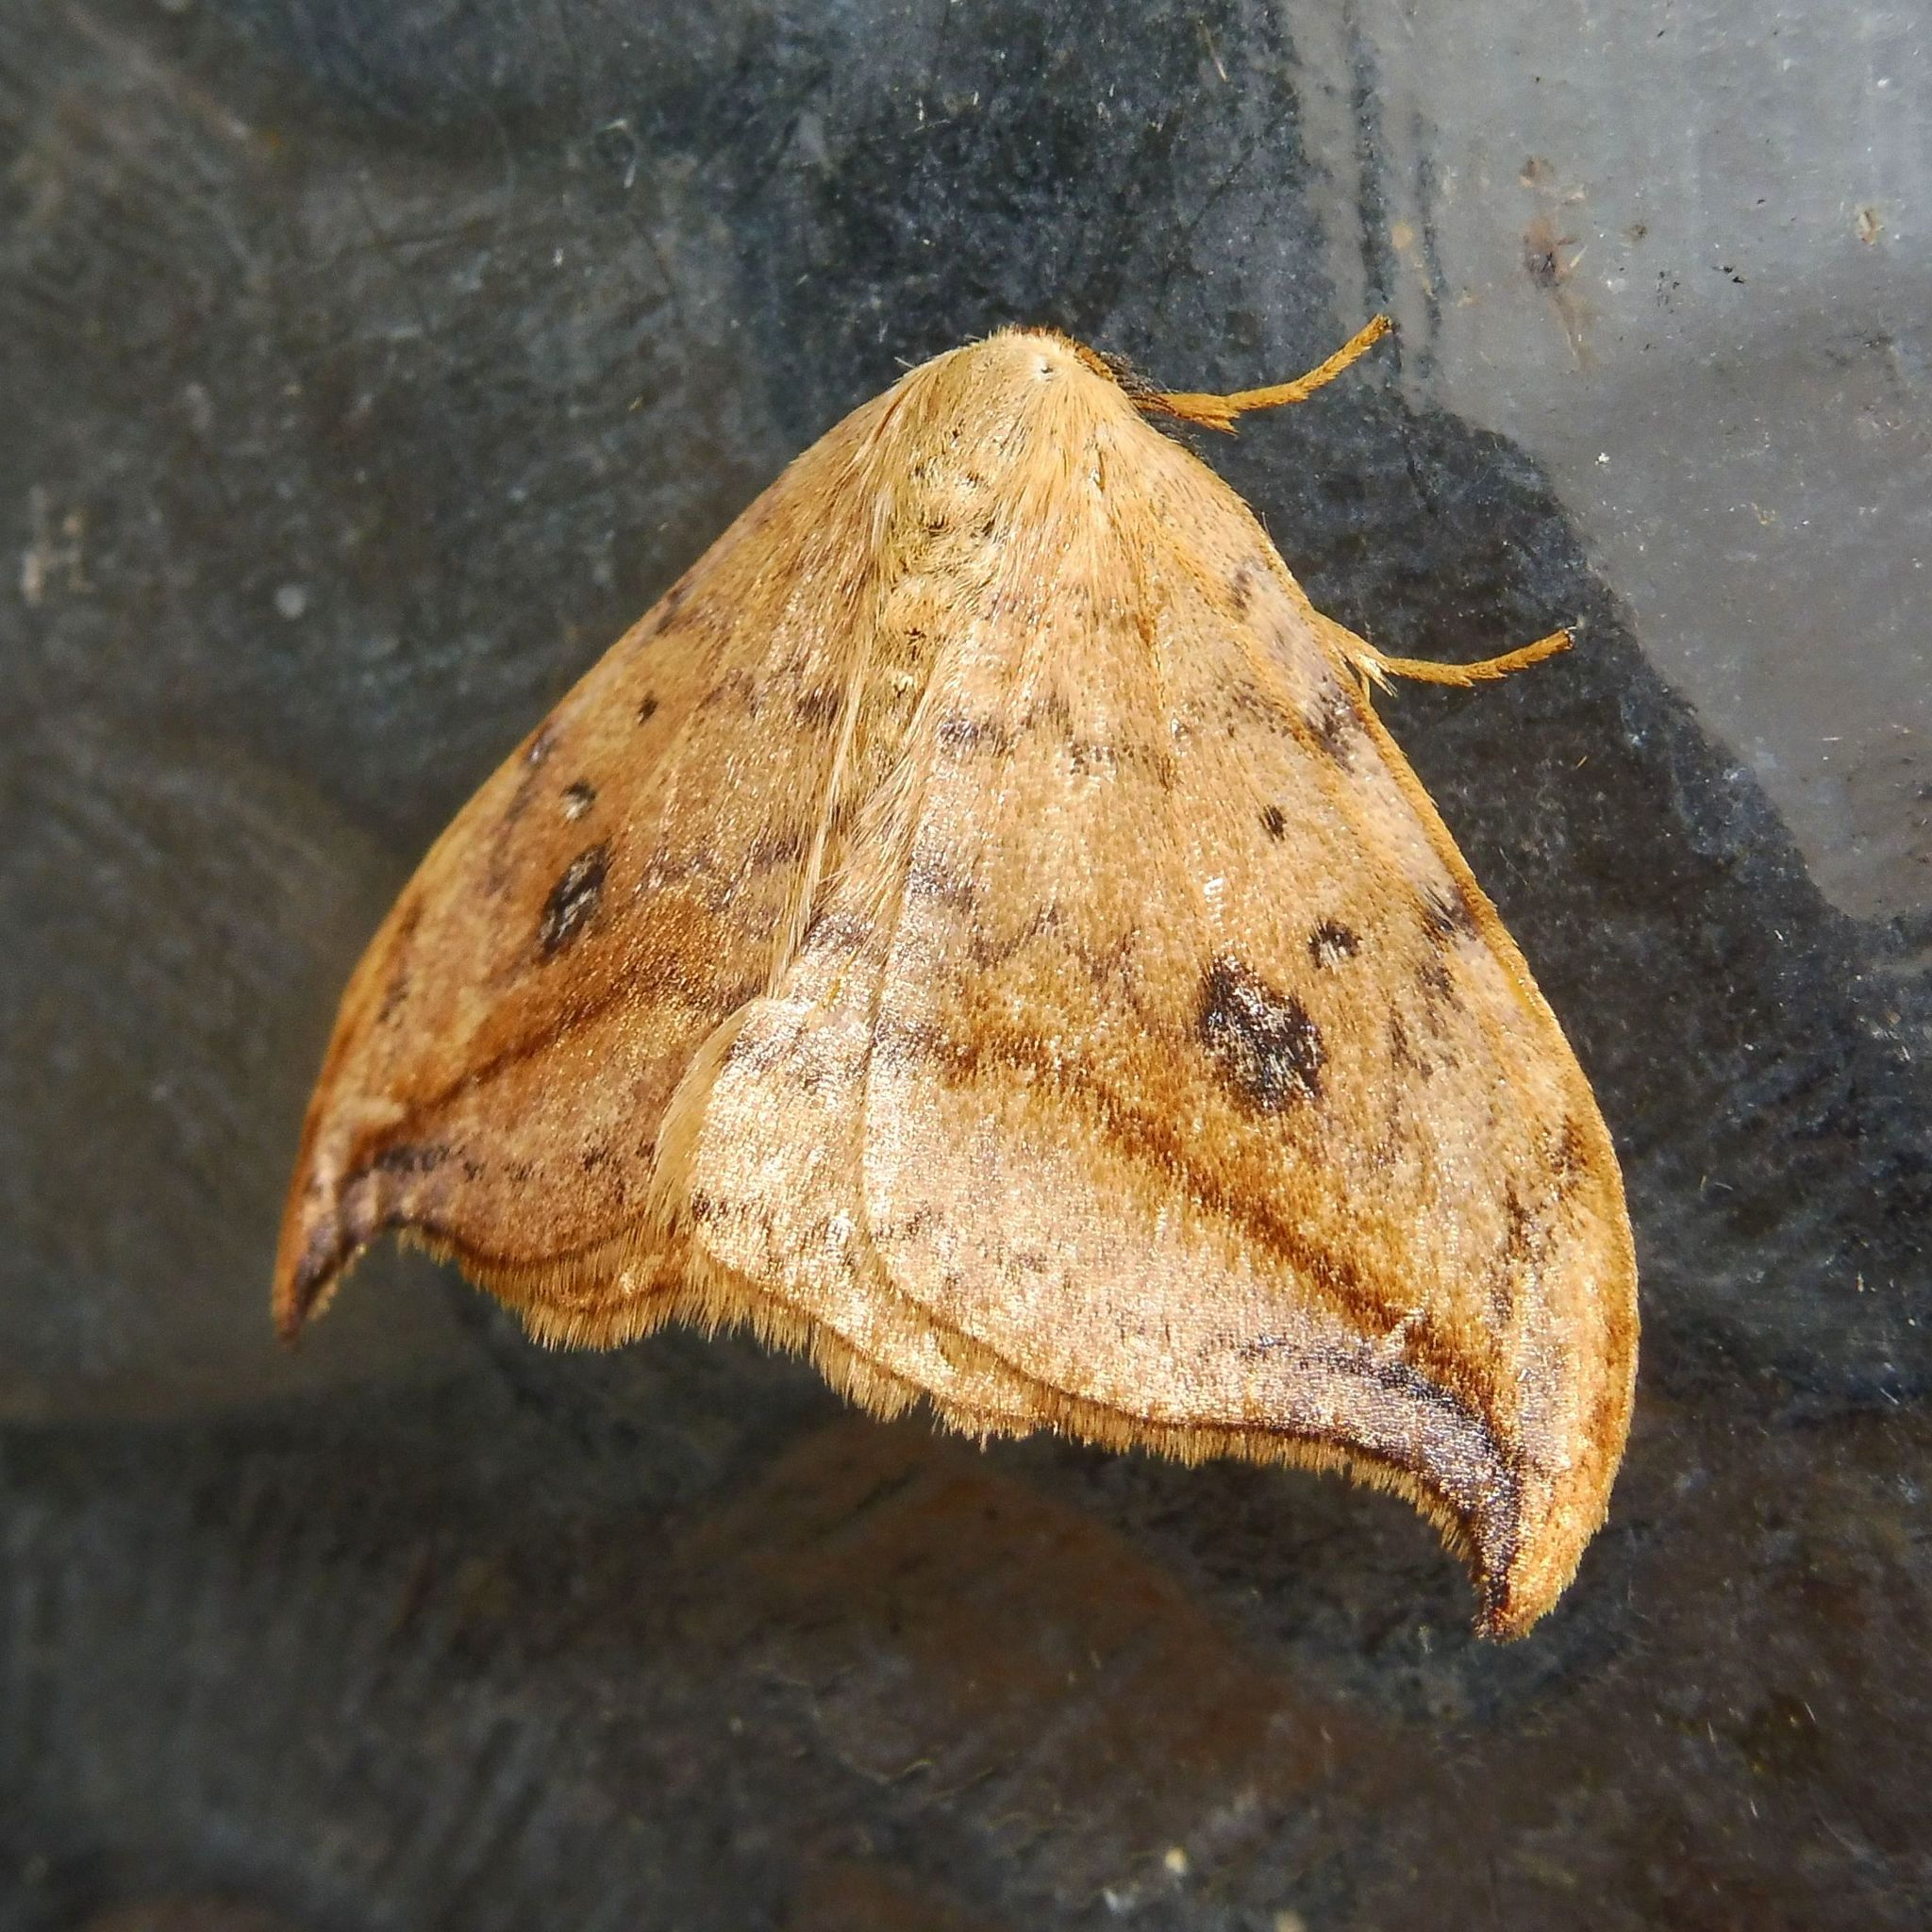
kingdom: Animalia
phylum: Arthropoda
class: Insecta
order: Lepidoptera
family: Drepanidae
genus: Drepana
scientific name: Drepana falcataria
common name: Pebble hook-tip
